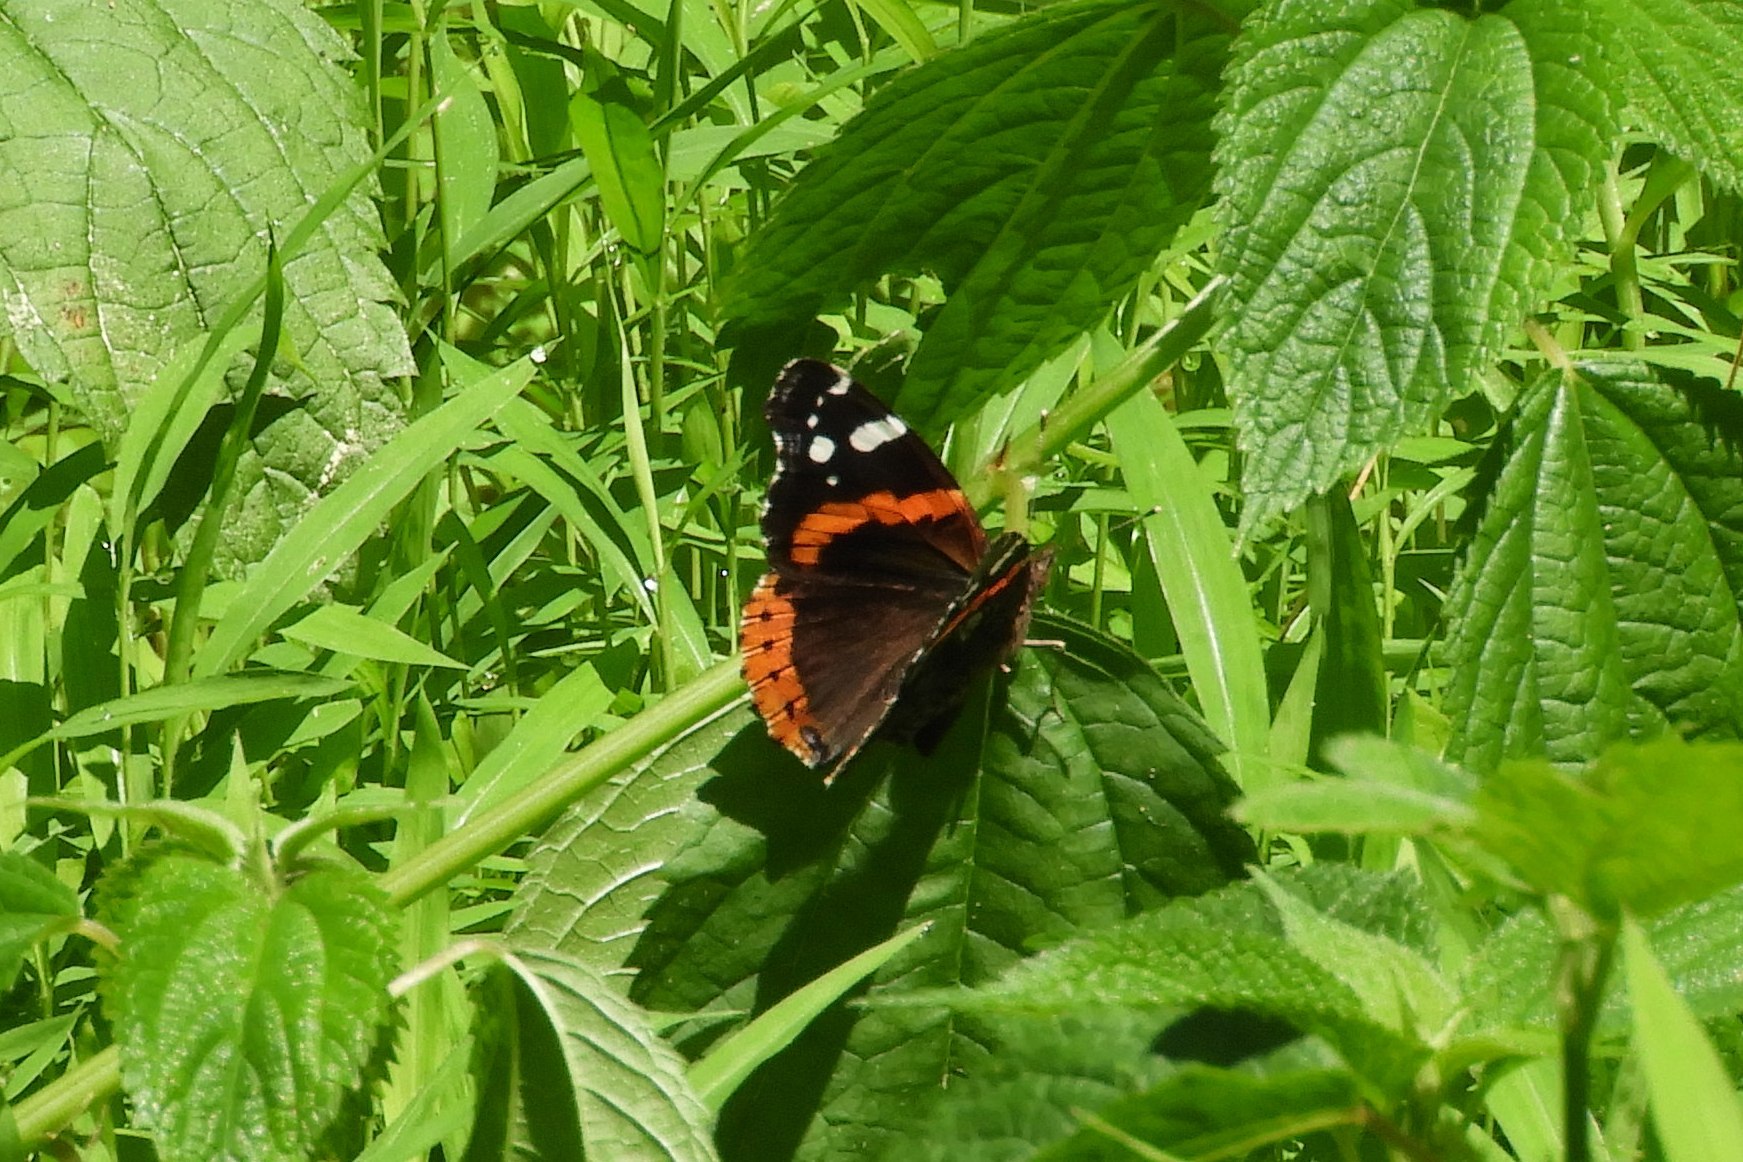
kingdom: Animalia
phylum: Arthropoda
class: Insecta
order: Lepidoptera
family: Nymphalidae
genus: Vanessa
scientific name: Vanessa atalanta
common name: Red admiral
